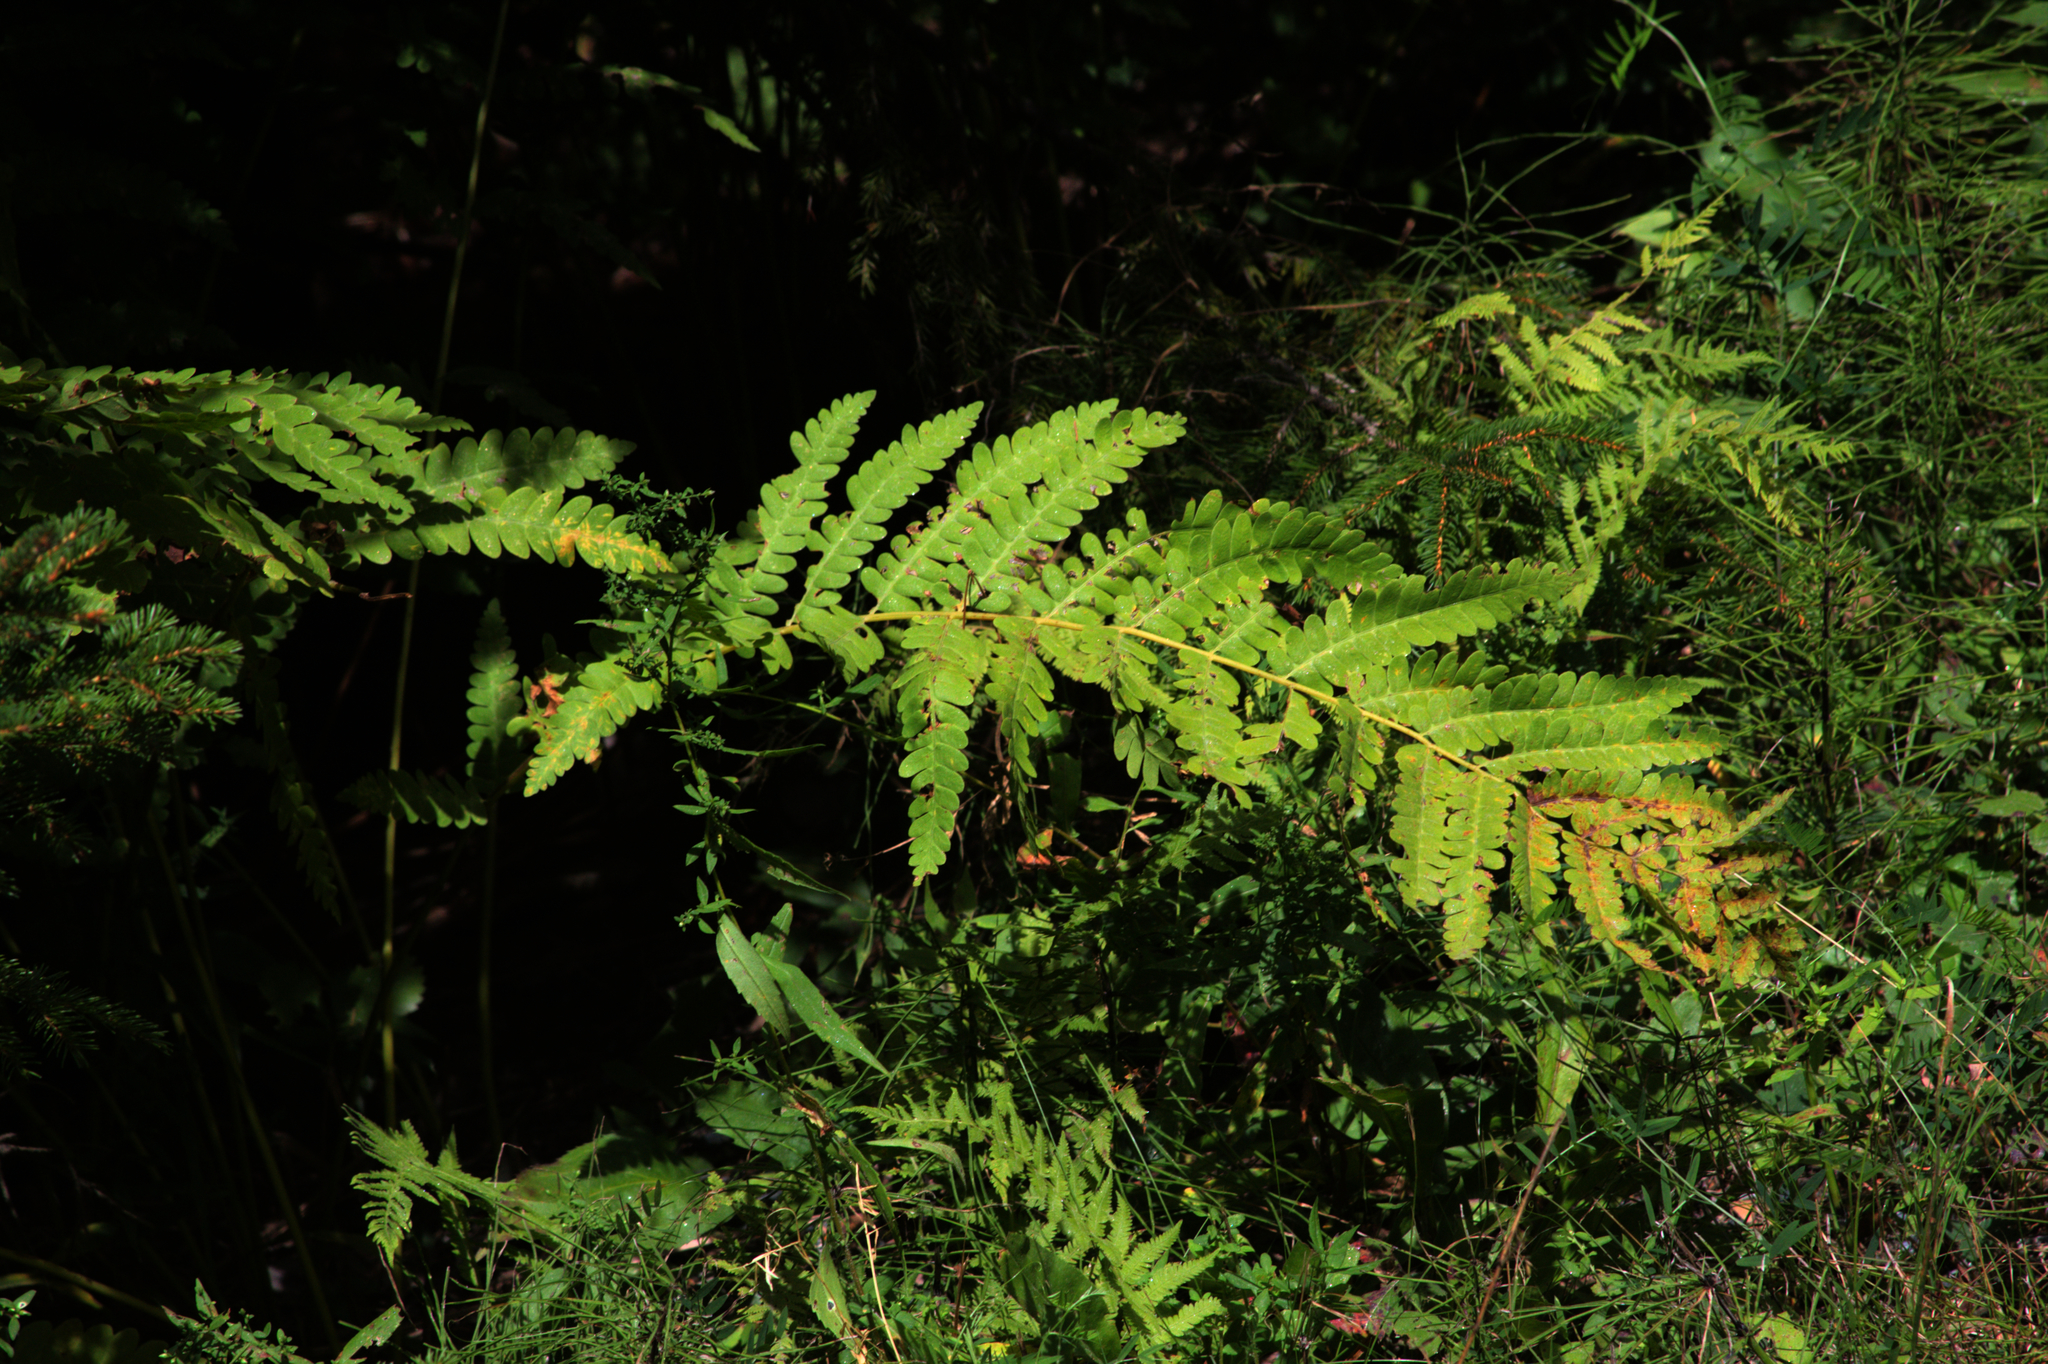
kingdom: Plantae
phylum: Tracheophyta
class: Polypodiopsida
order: Osmundales
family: Osmundaceae
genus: Claytosmunda
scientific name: Claytosmunda claytoniana
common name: Clayton's fern
